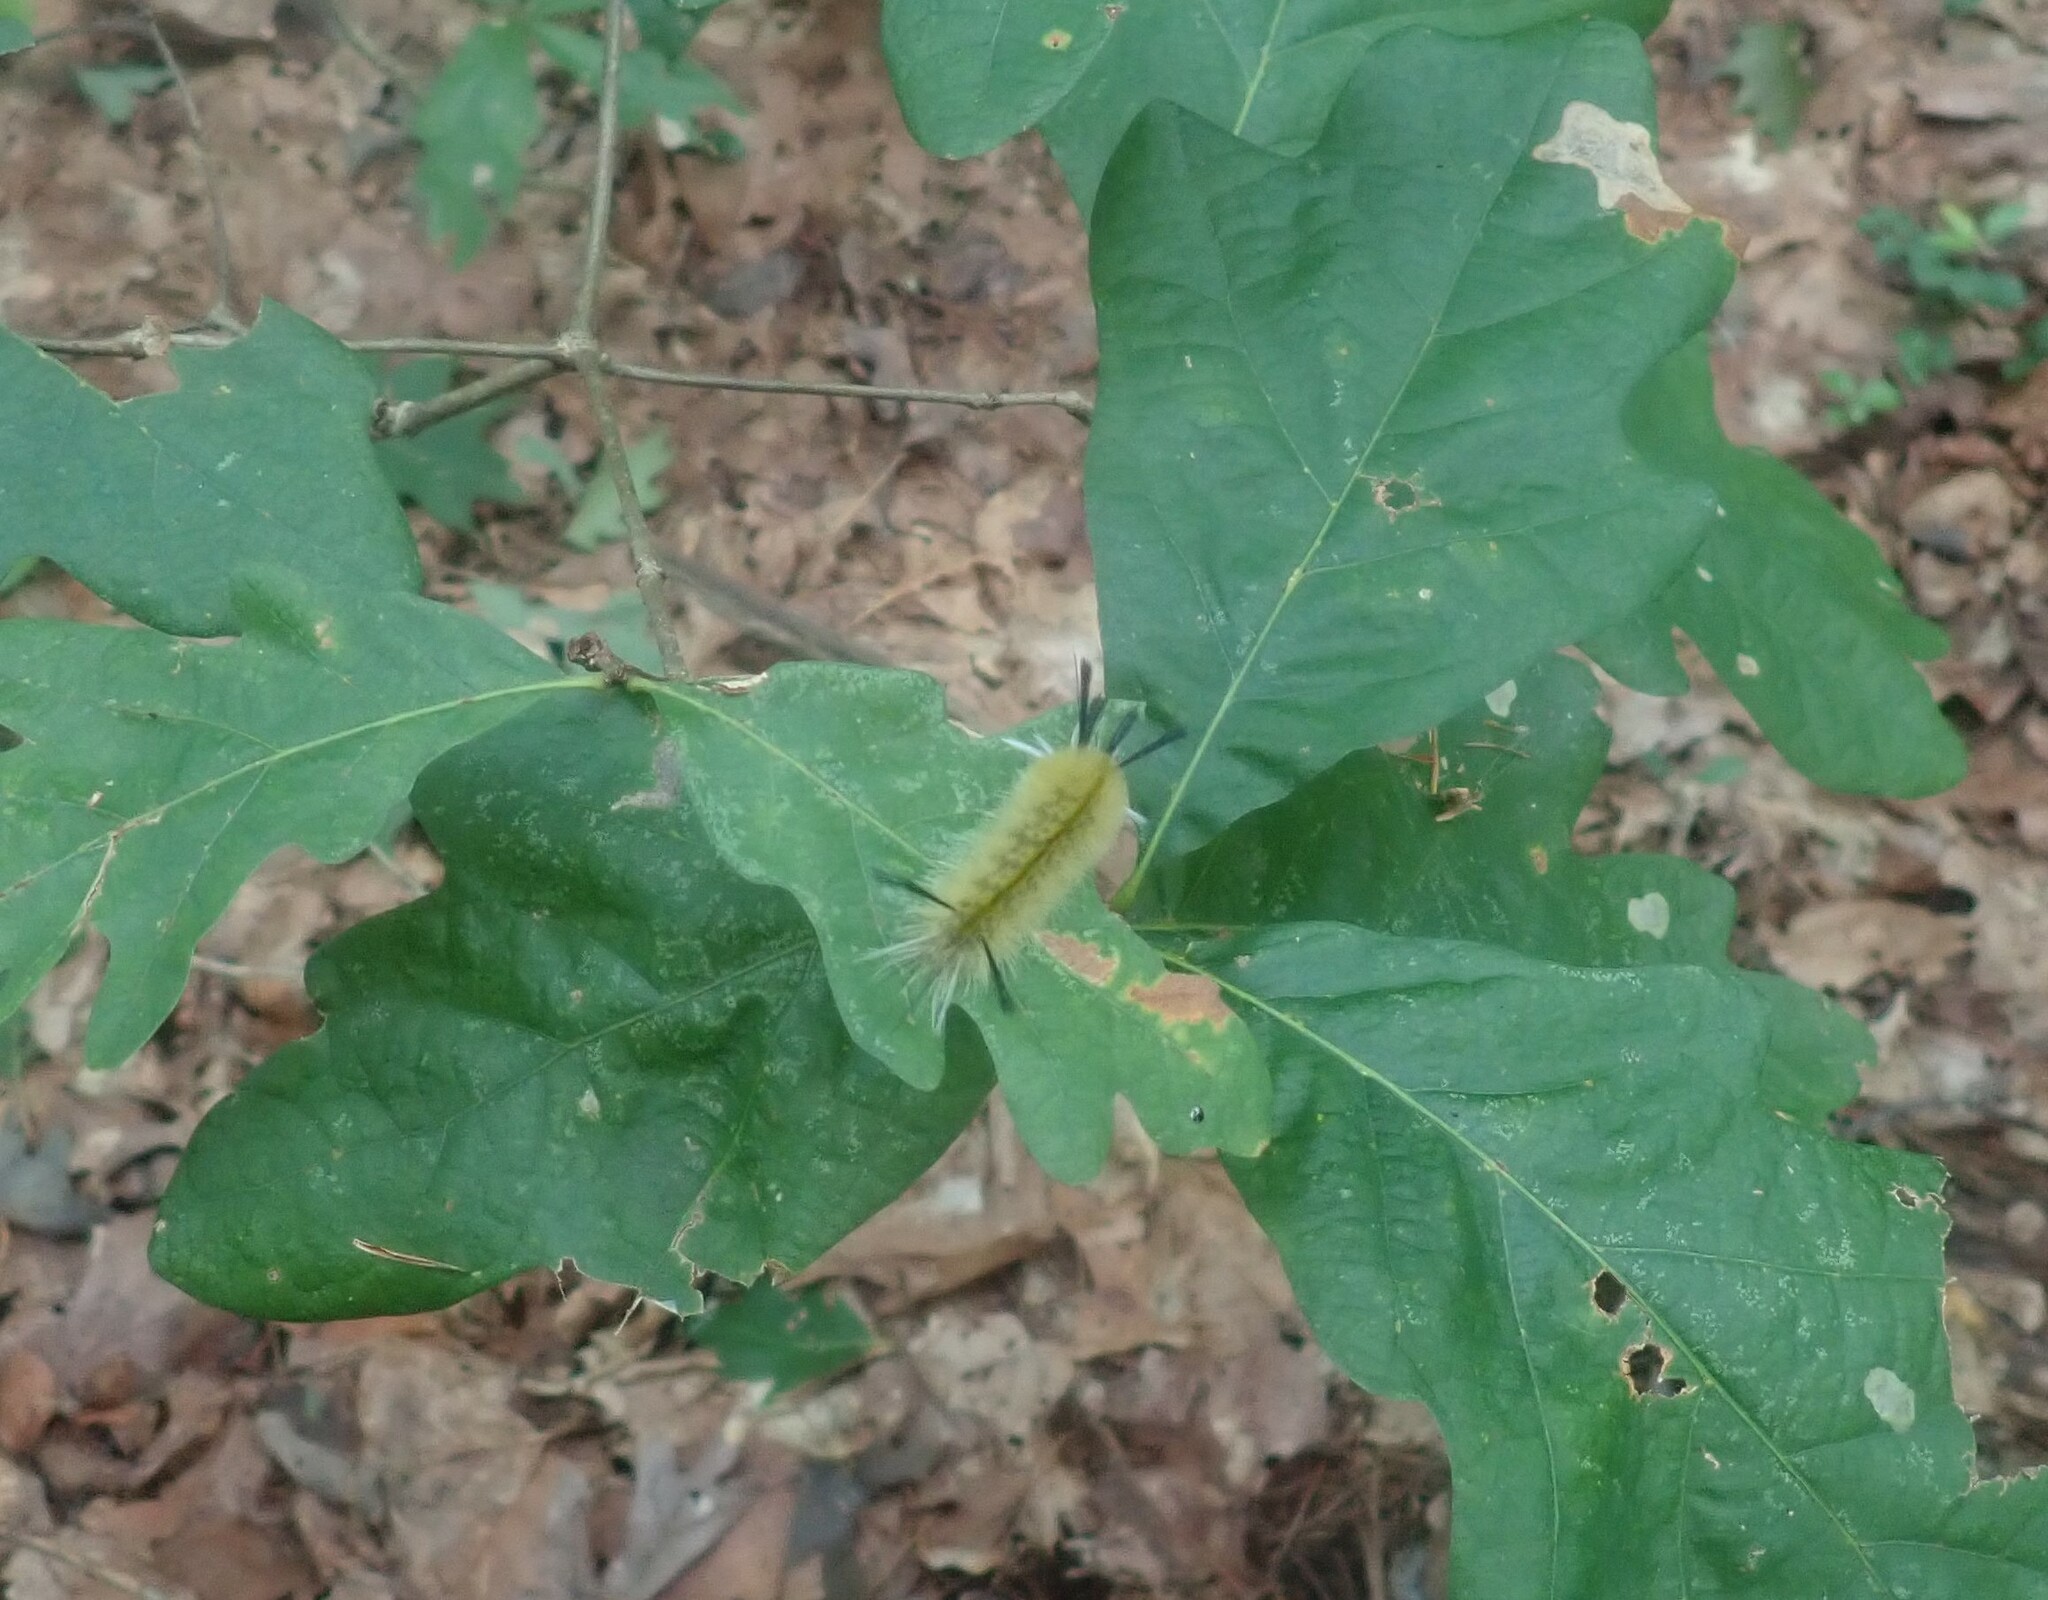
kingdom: Animalia
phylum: Arthropoda
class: Insecta
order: Lepidoptera
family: Erebidae
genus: Halysidota
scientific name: Halysidota tessellaris
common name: Banded tussock moth
